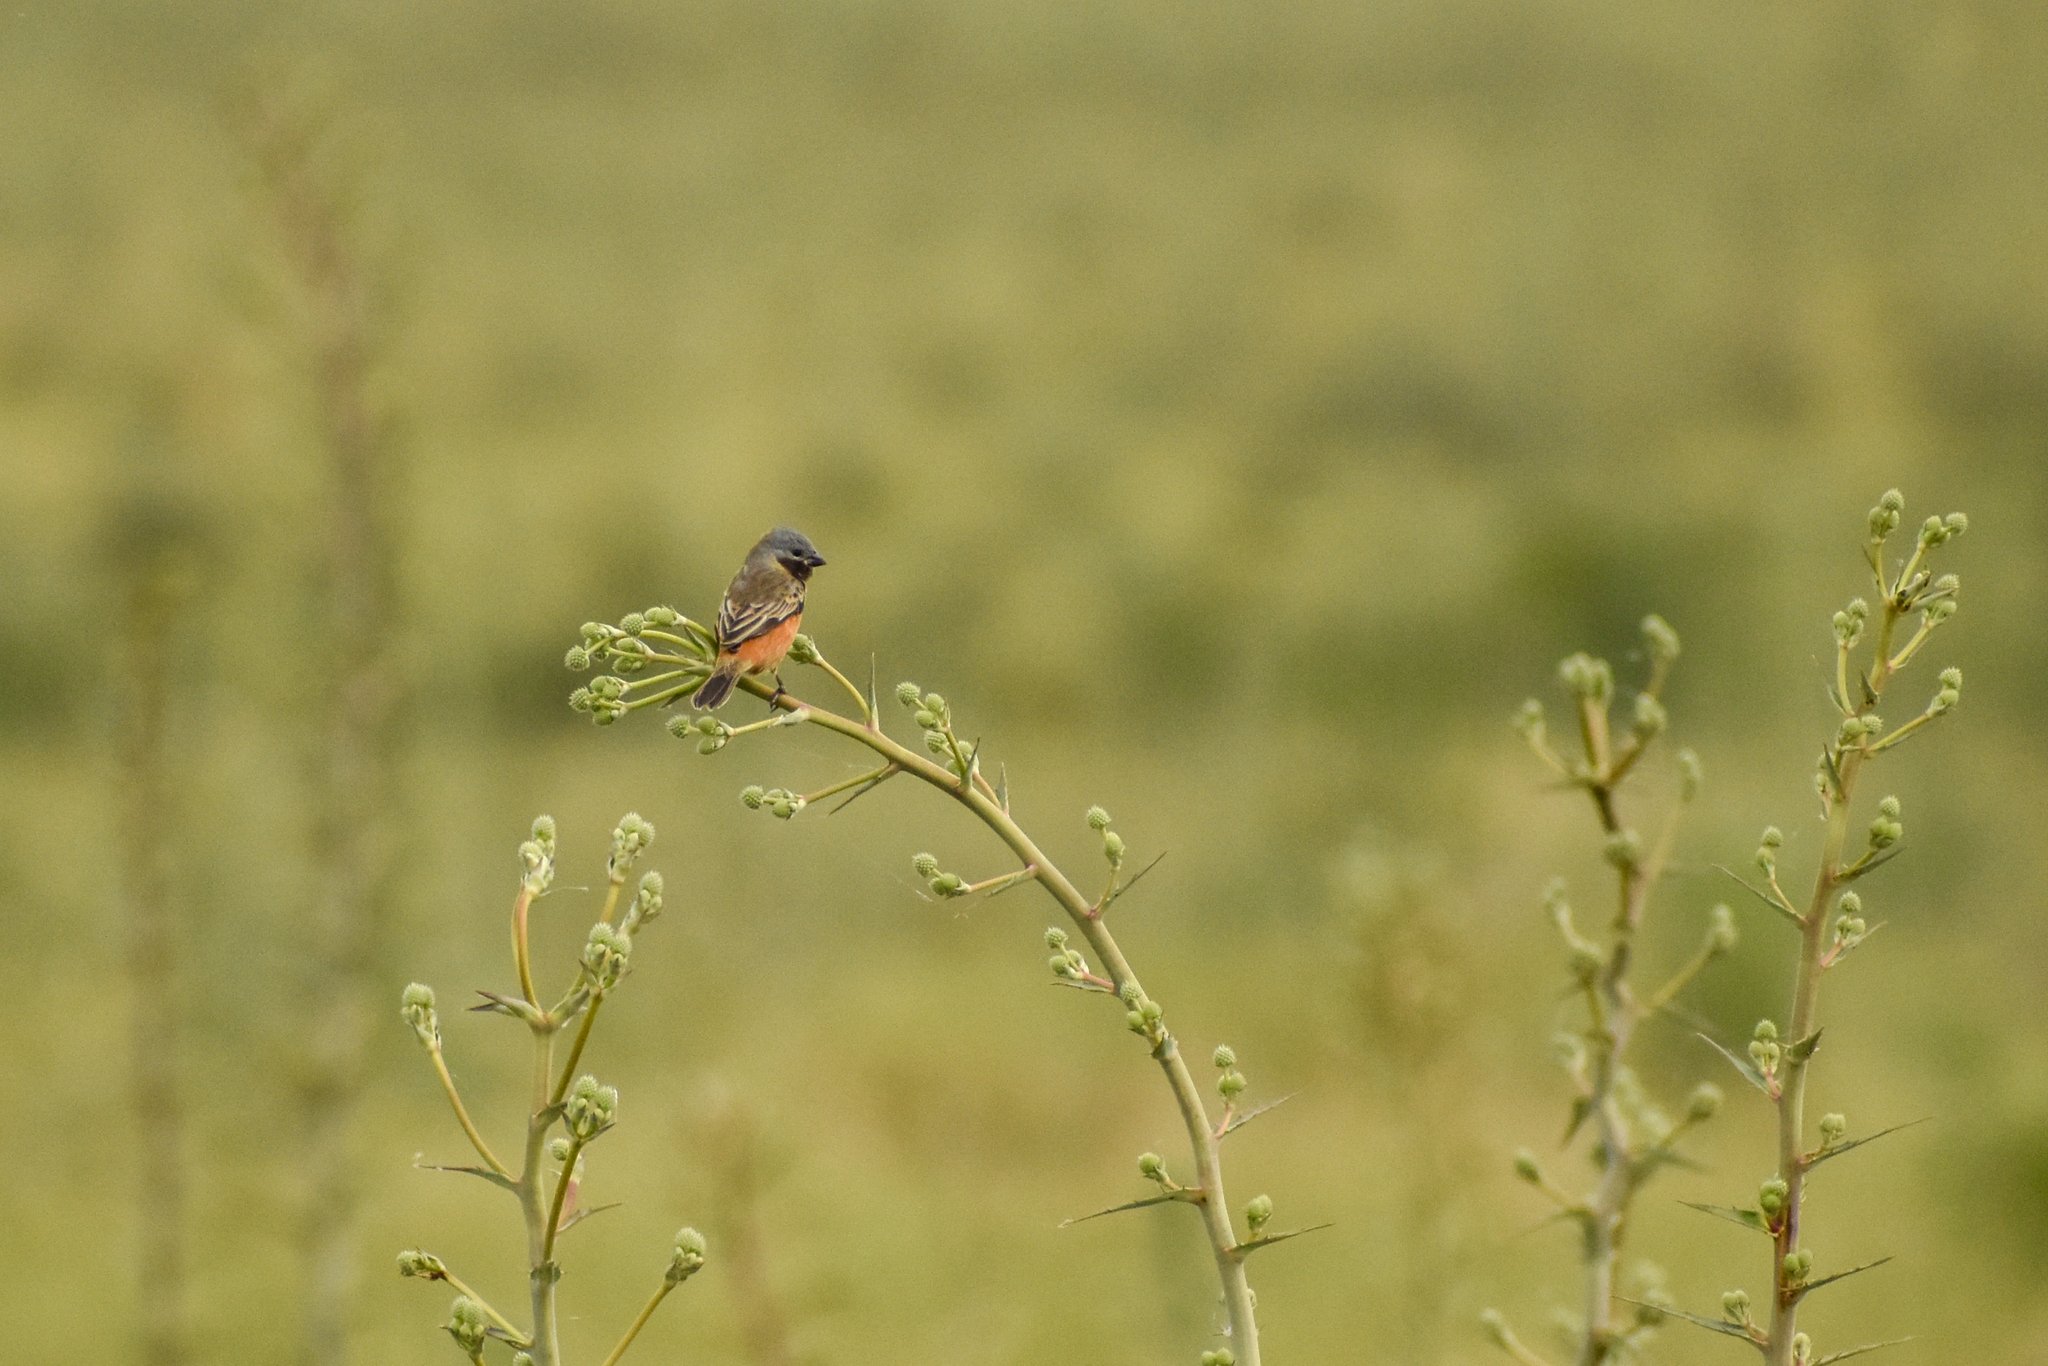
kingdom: Animalia
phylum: Chordata
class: Aves
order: Passeriformes
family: Thraupidae
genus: Sporophila
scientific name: Sporophila ruficollis
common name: Dark-throated seedeater
